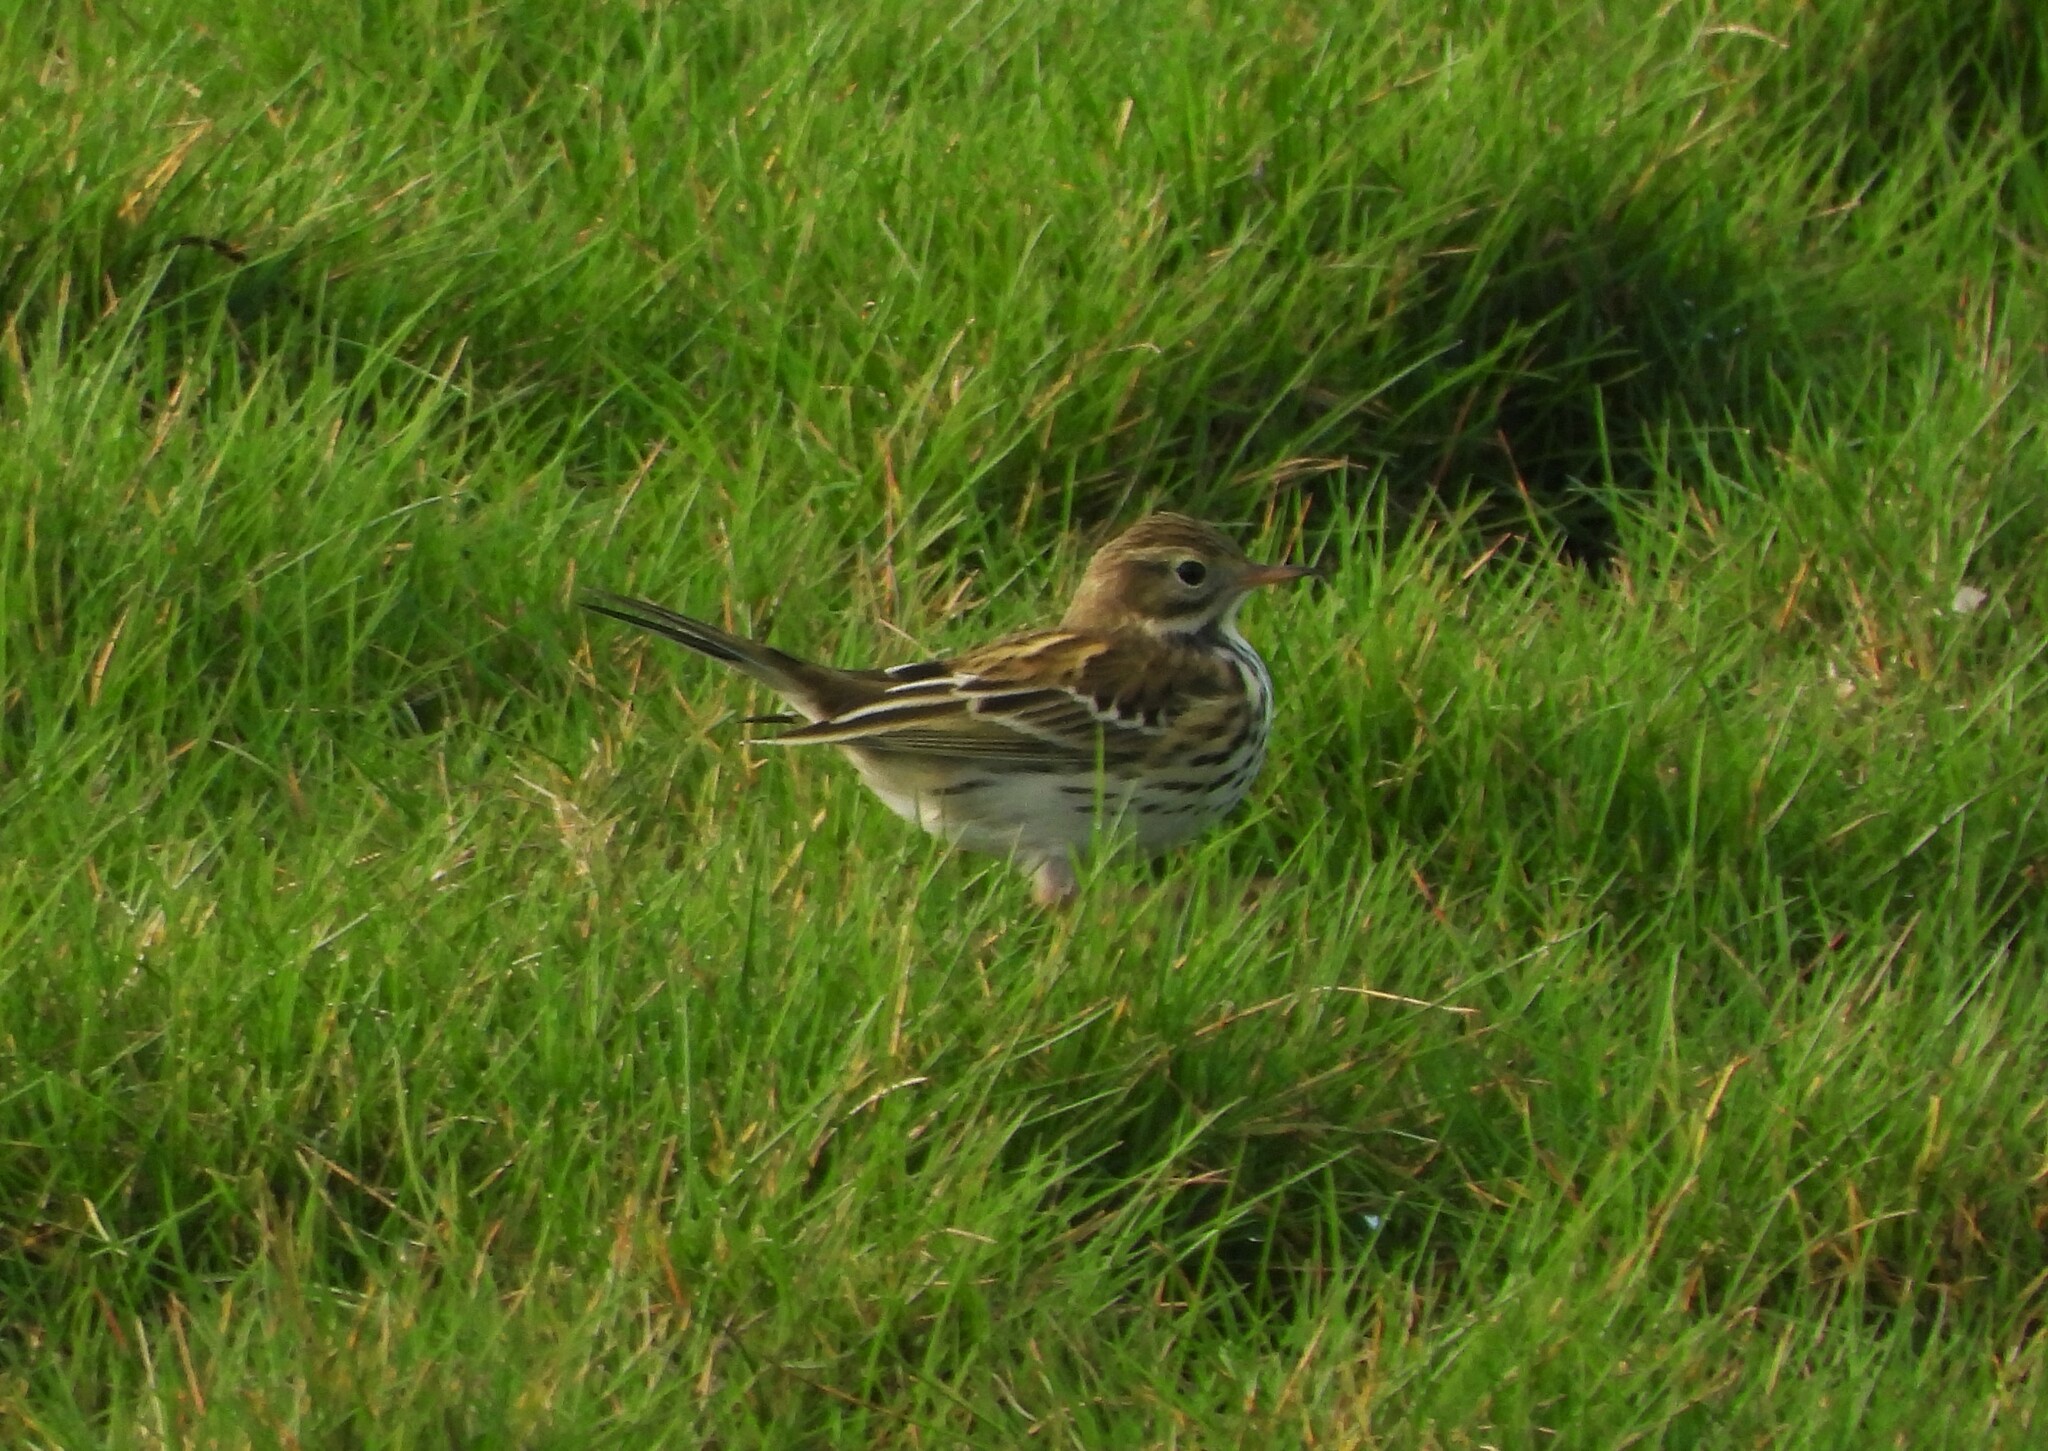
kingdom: Animalia
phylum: Chordata
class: Aves
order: Passeriformes
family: Motacillidae
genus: Anthus
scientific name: Anthus pratensis
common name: Meadow pipit
